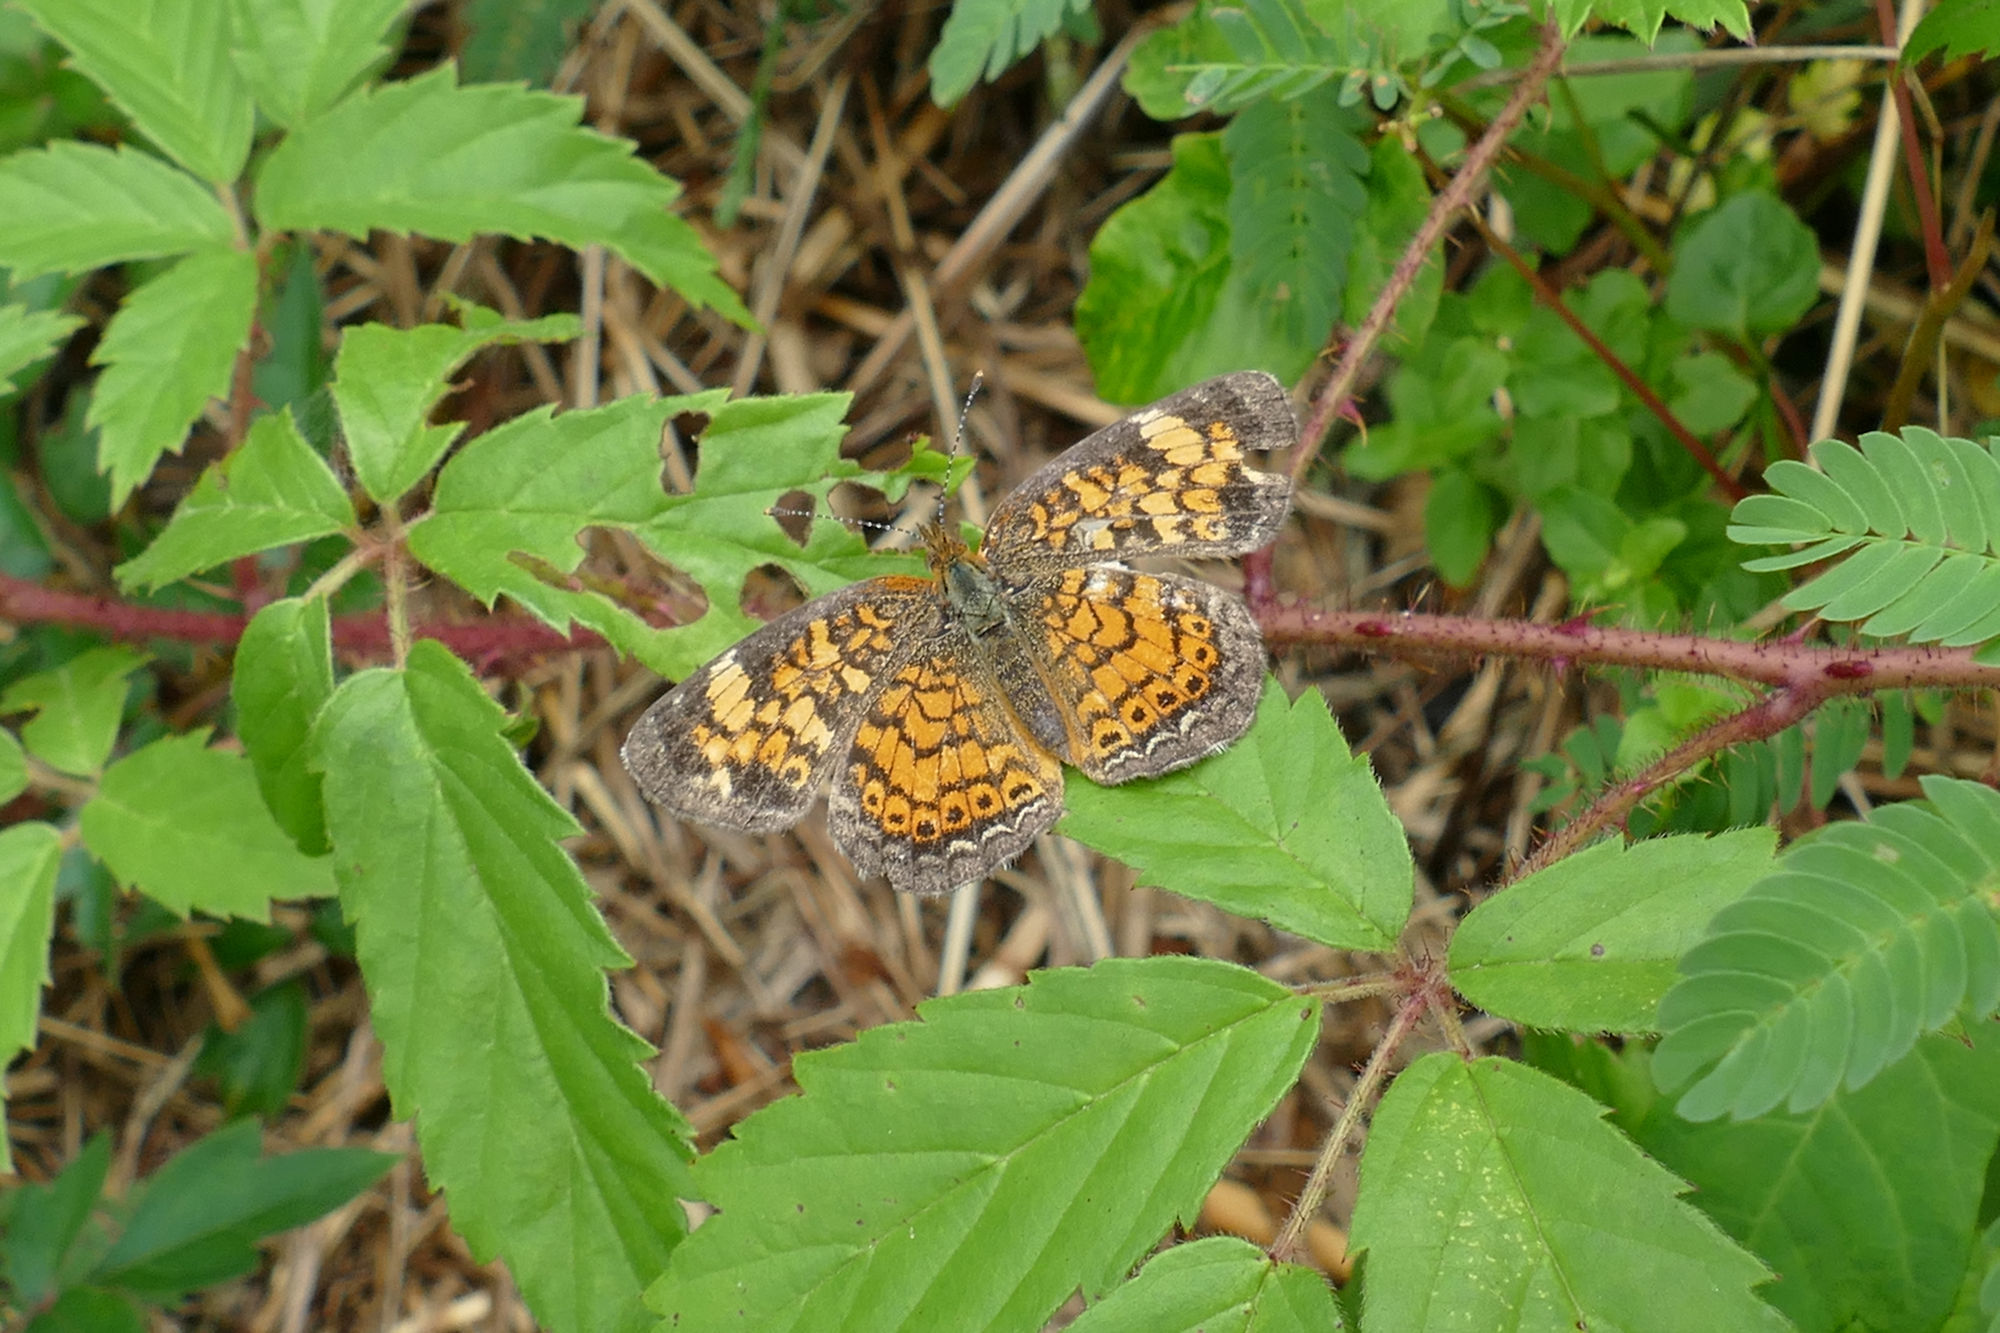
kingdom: Plantae
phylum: Tracheophyta
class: Magnoliopsida
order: Rosales
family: Rosaceae
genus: Rubus
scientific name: Rubus trivialis
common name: Southern dewberry
